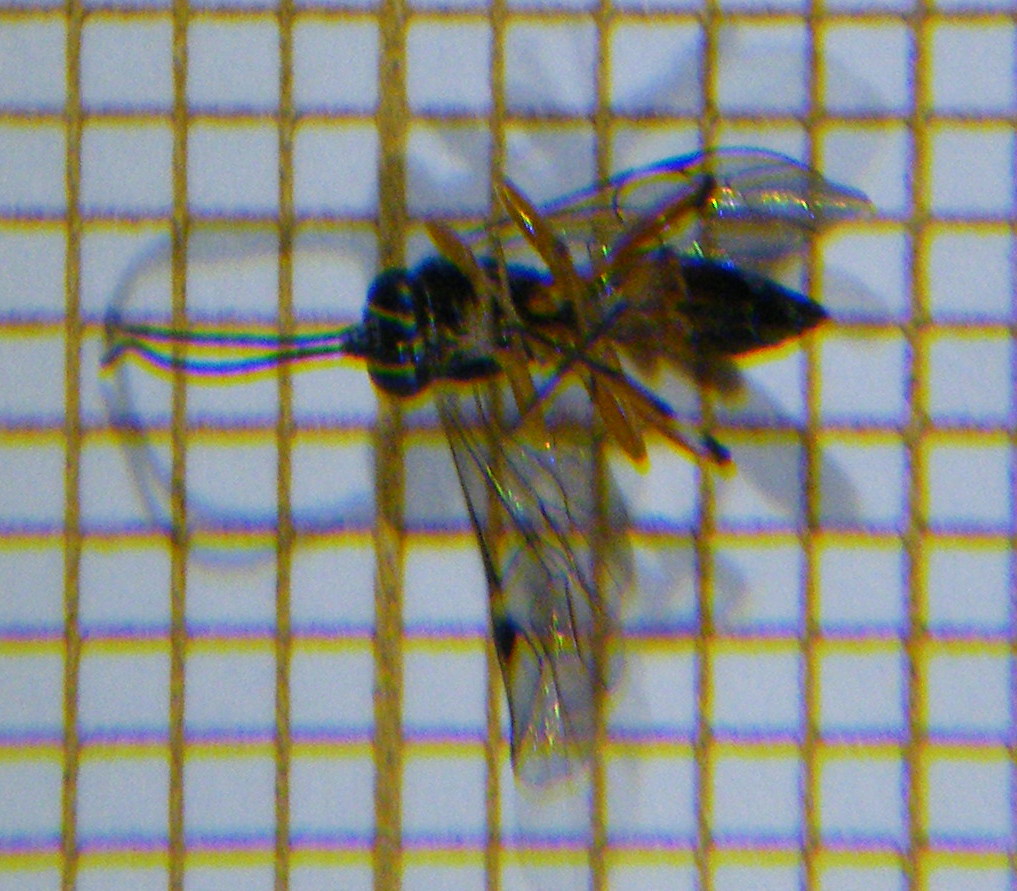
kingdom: Animalia
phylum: Arthropoda
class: Insecta
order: Hymenoptera
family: Ichneumonidae
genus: Diplazon
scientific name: Diplazon laetatorius
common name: Parasitoid wasp
